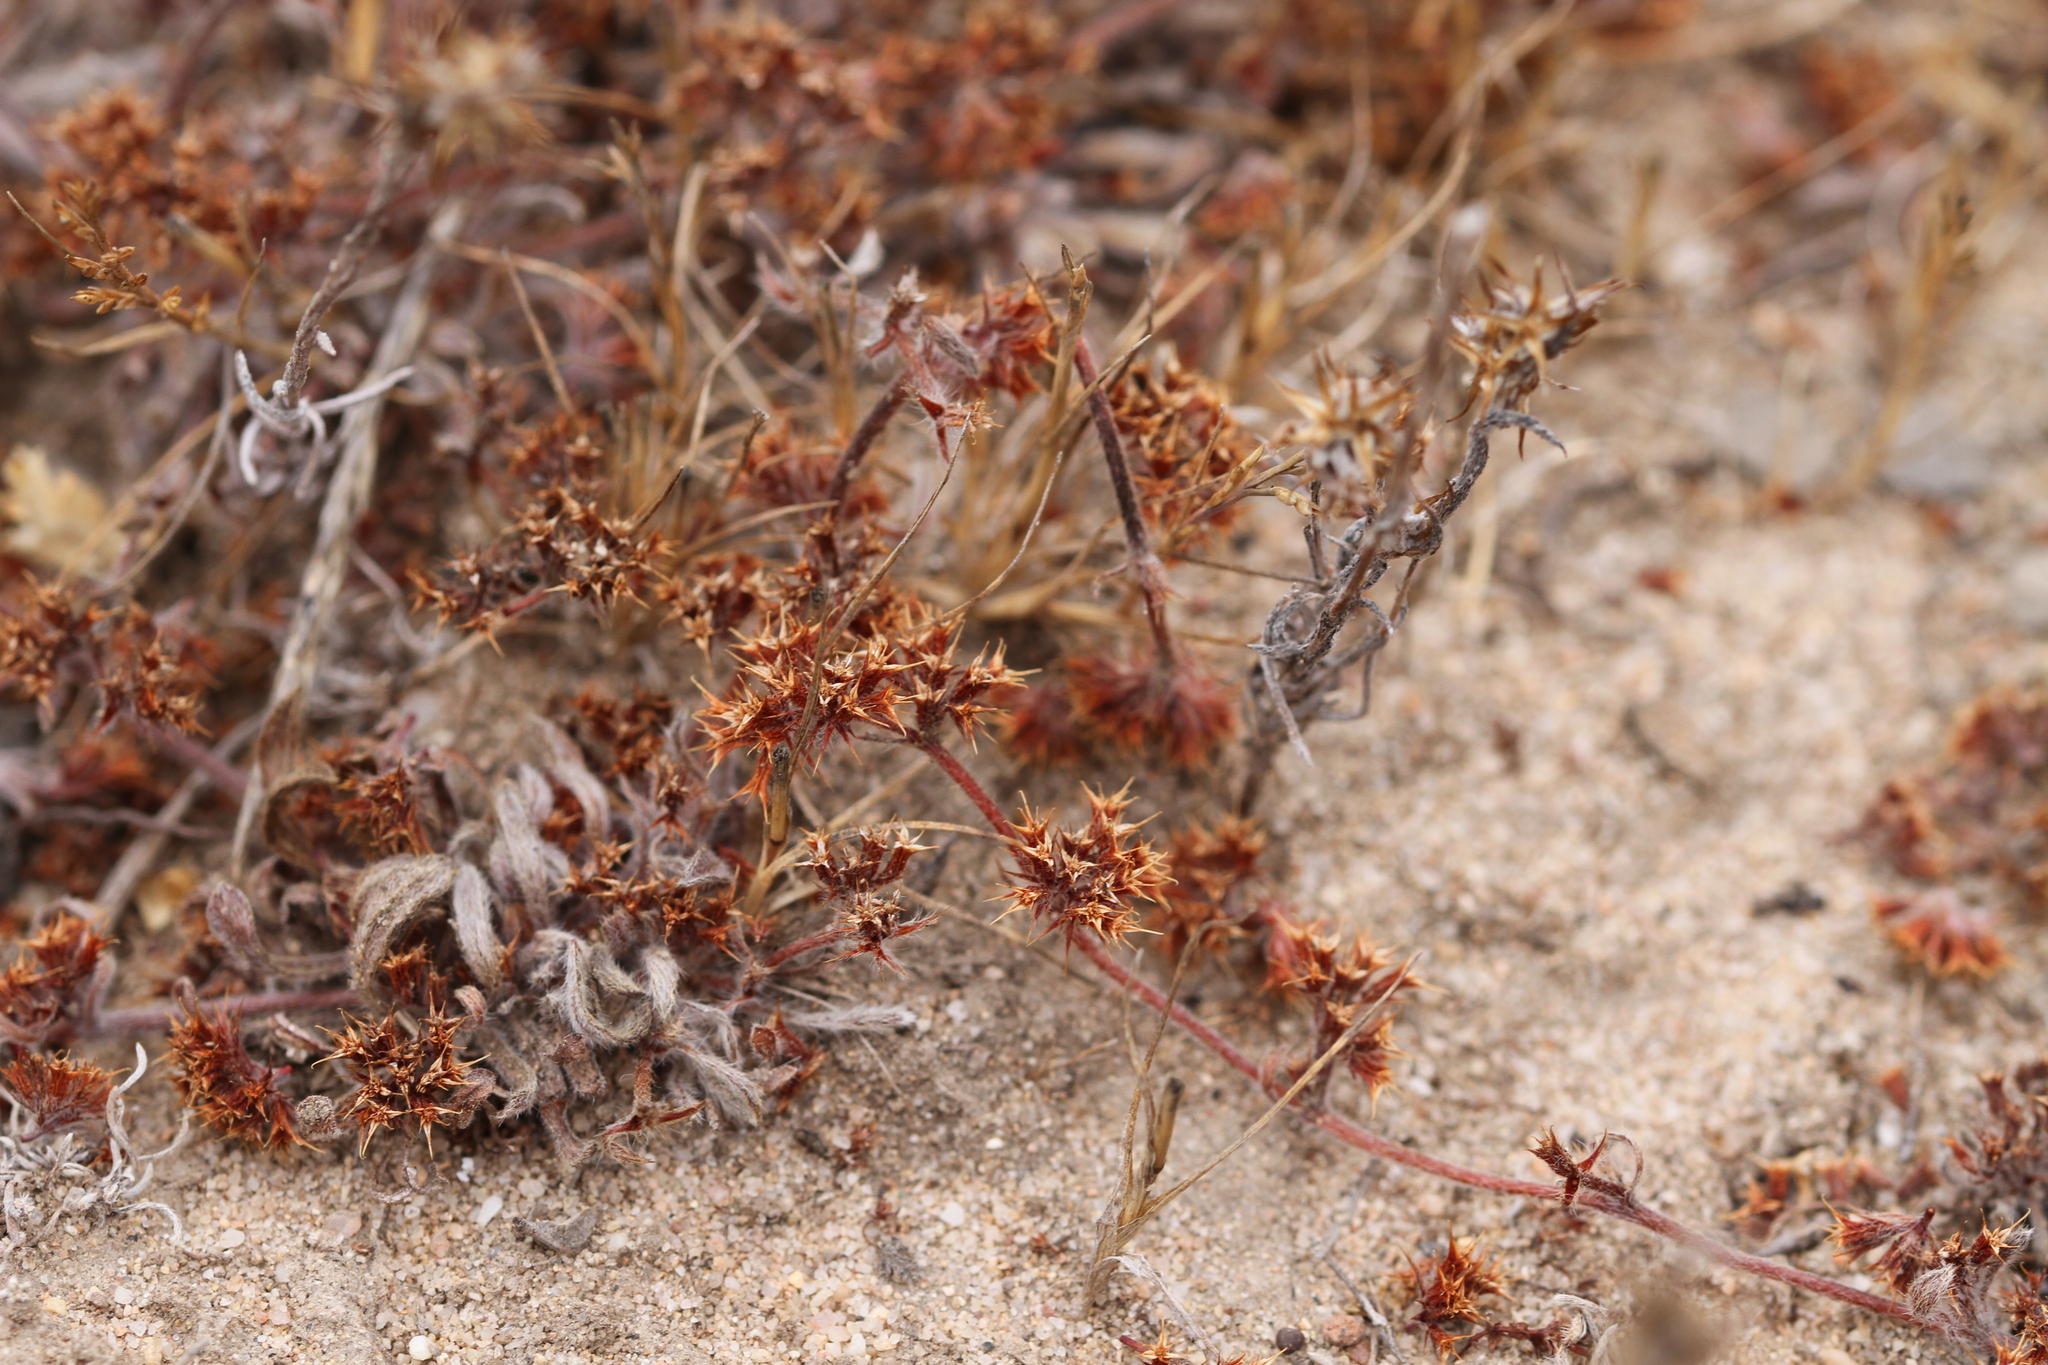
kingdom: Plantae
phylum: Tracheophyta
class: Magnoliopsida
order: Caryophyllales
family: Polygonaceae
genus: Chorizanthe
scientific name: Chorizanthe pungens
